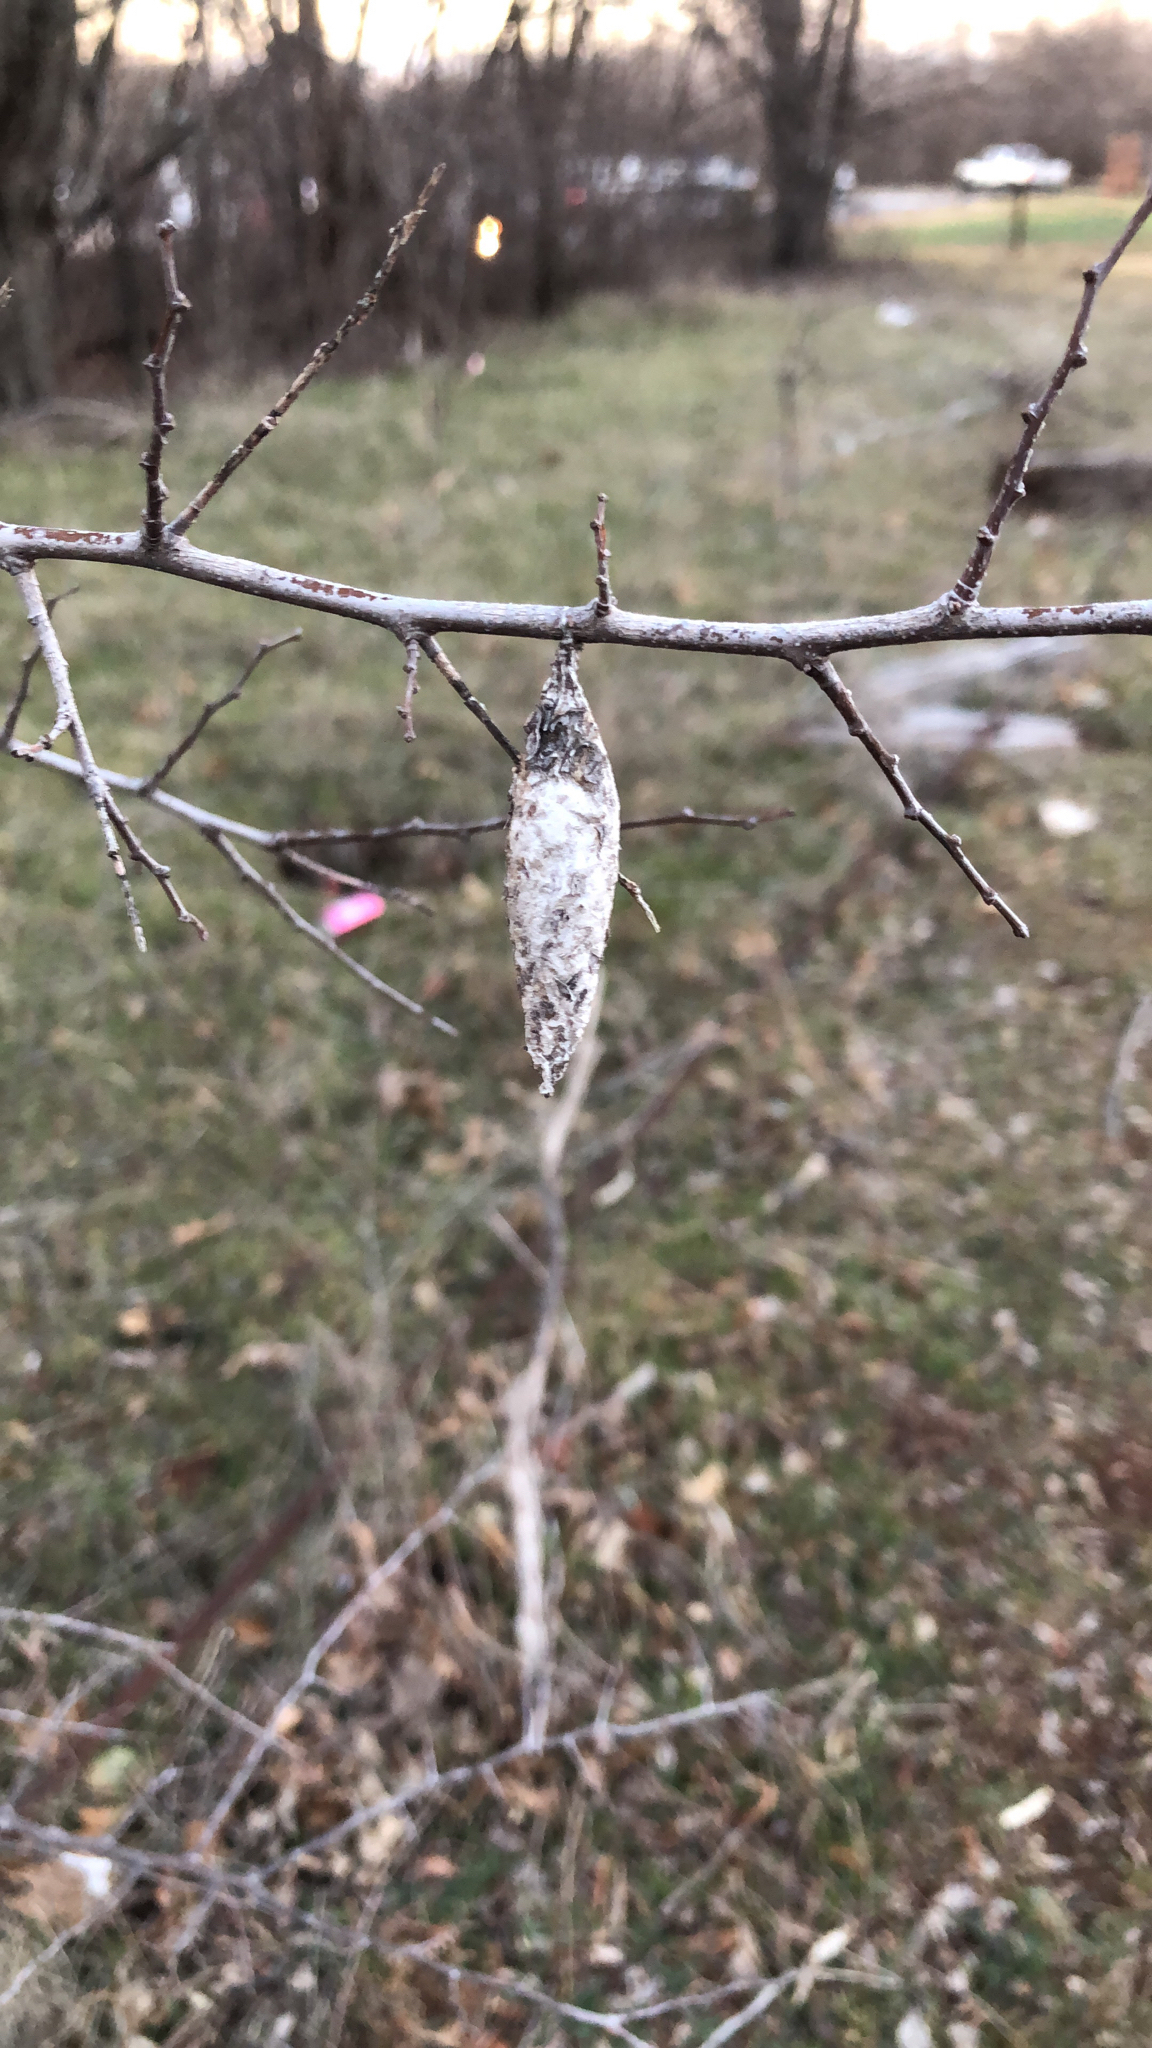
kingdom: Animalia
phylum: Arthropoda
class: Insecta
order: Lepidoptera
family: Psychidae
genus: Thyridopteryx
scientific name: Thyridopteryx ephemeraeformis
